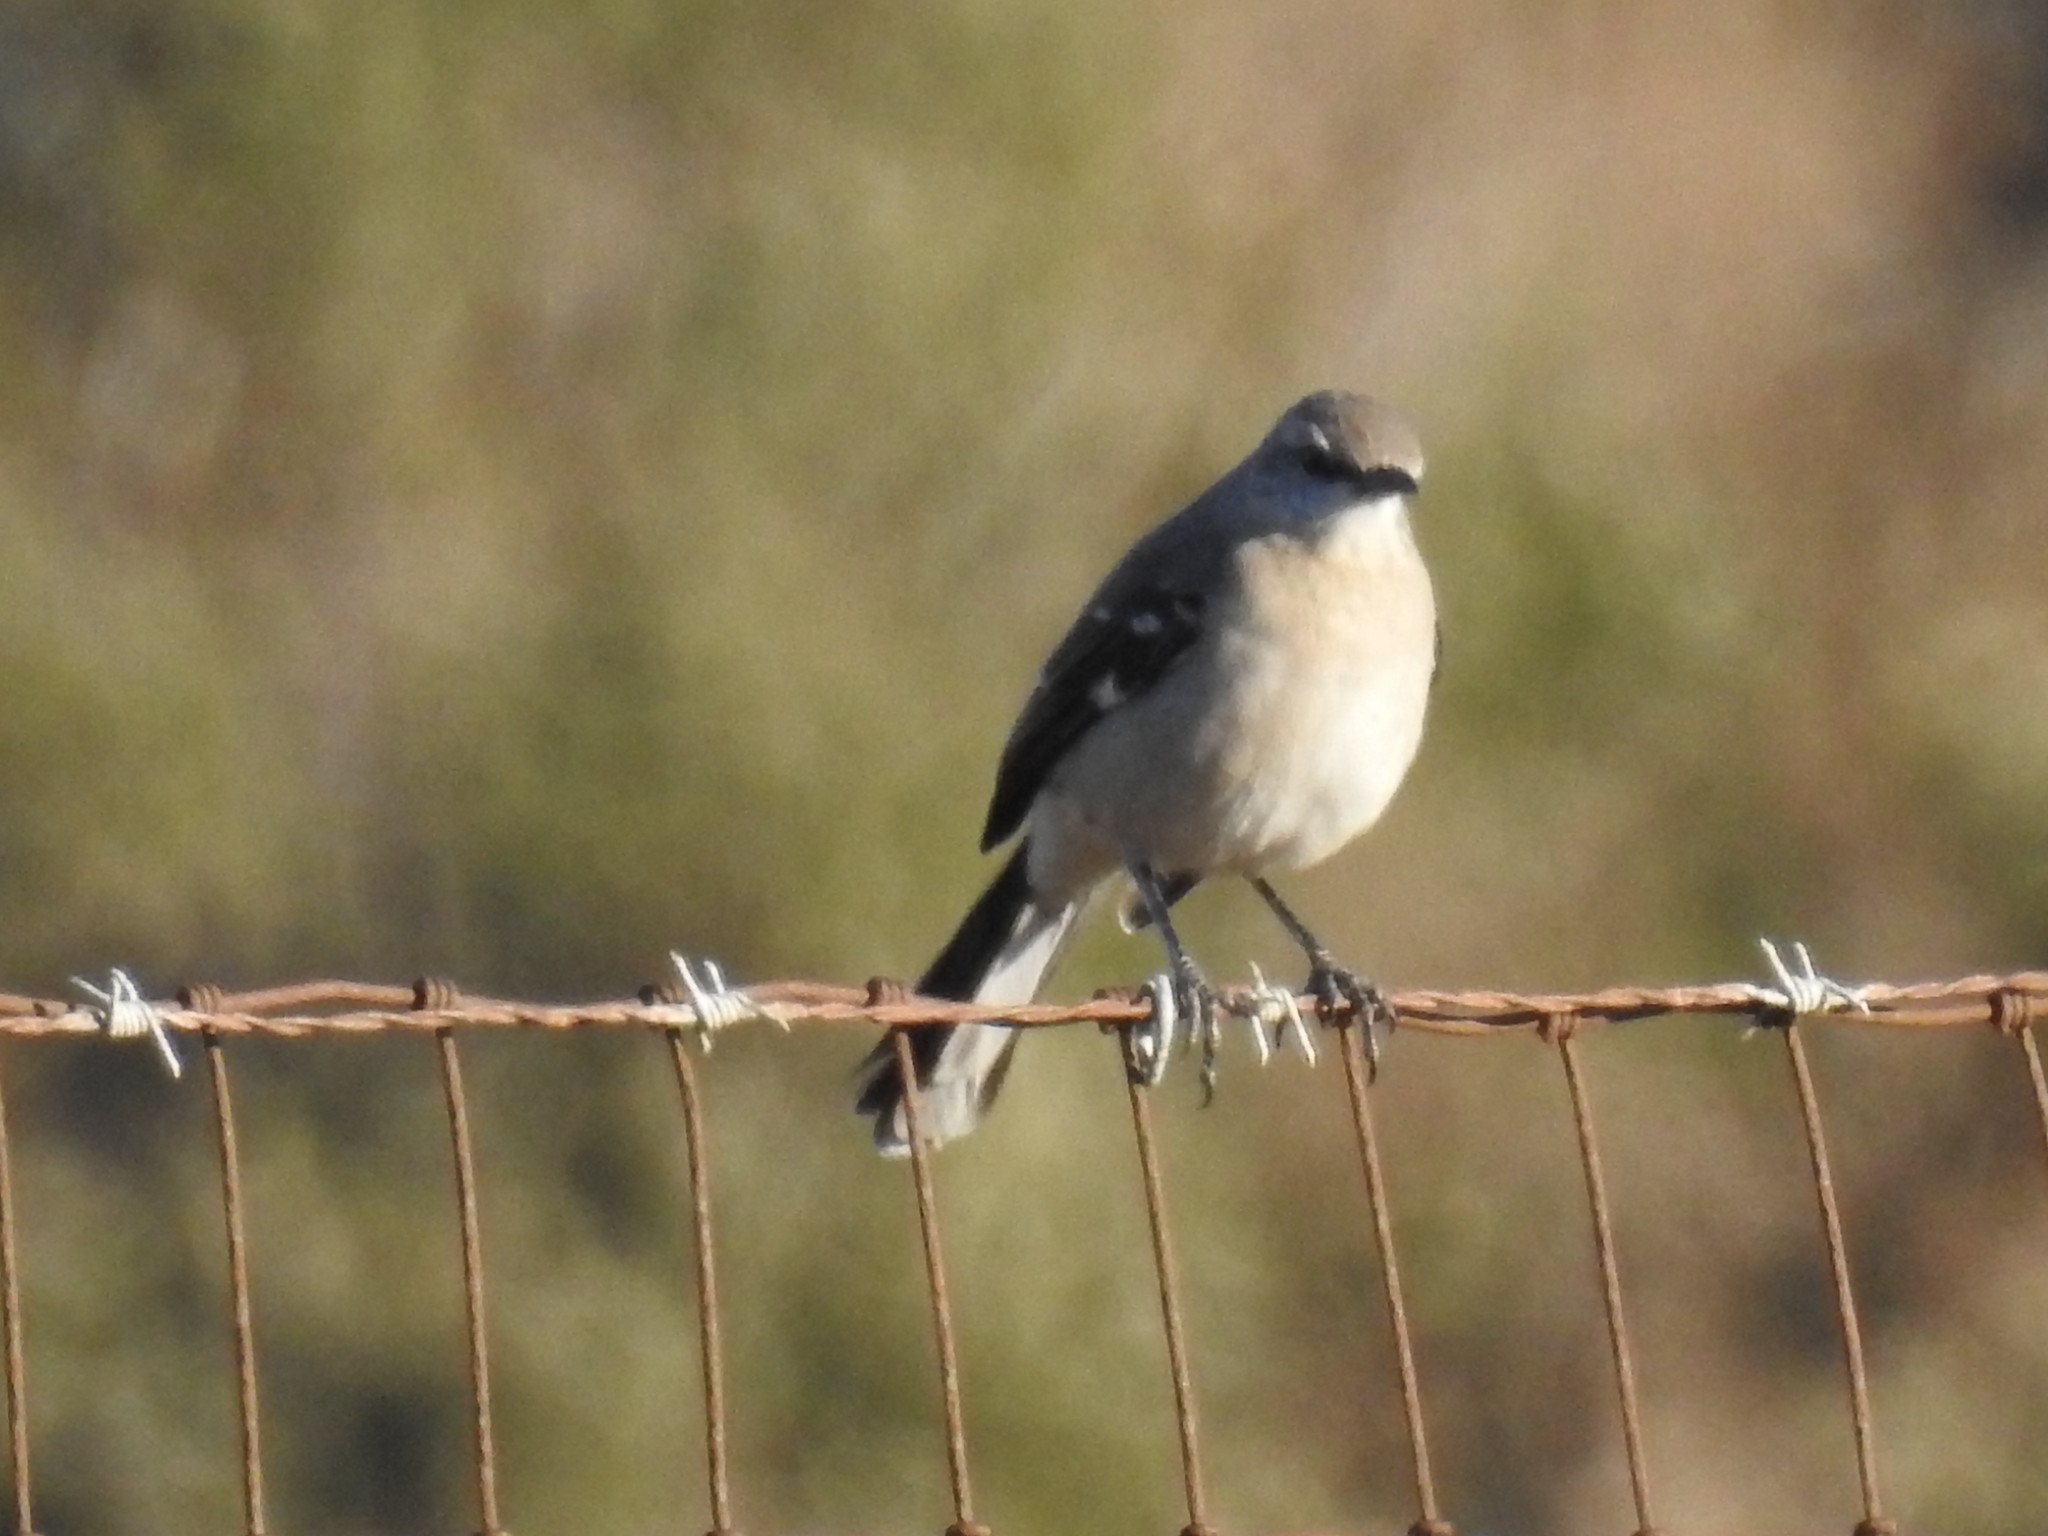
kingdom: Animalia
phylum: Chordata
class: Aves
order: Passeriformes
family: Mimidae
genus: Mimus
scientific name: Mimus polyglottos
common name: Northern mockingbird
